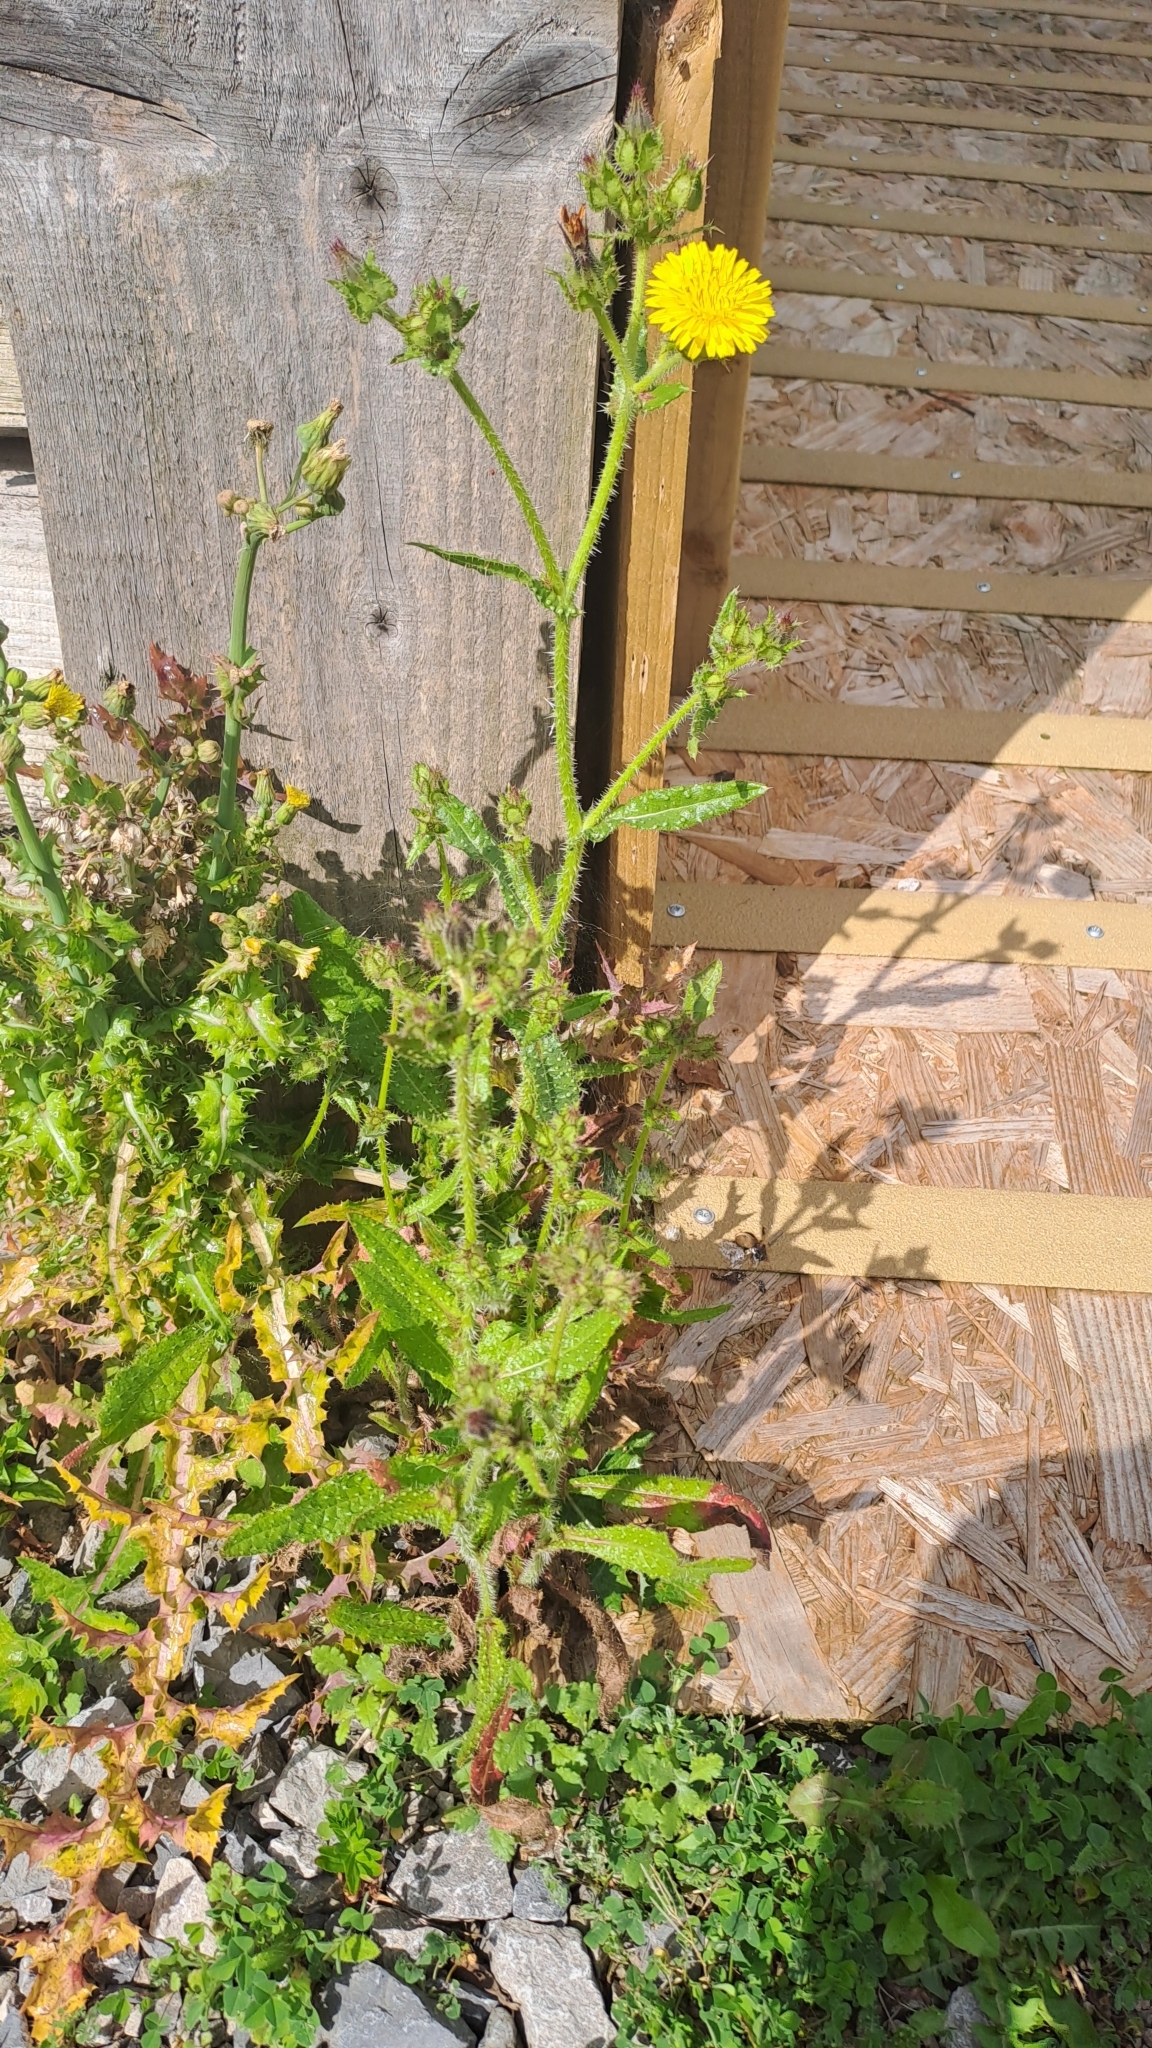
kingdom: Plantae
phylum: Tracheophyta
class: Magnoliopsida
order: Asterales
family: Asteraceae
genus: Helminthotheca
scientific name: Helminthotheca echioides
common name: Ox-tongue
